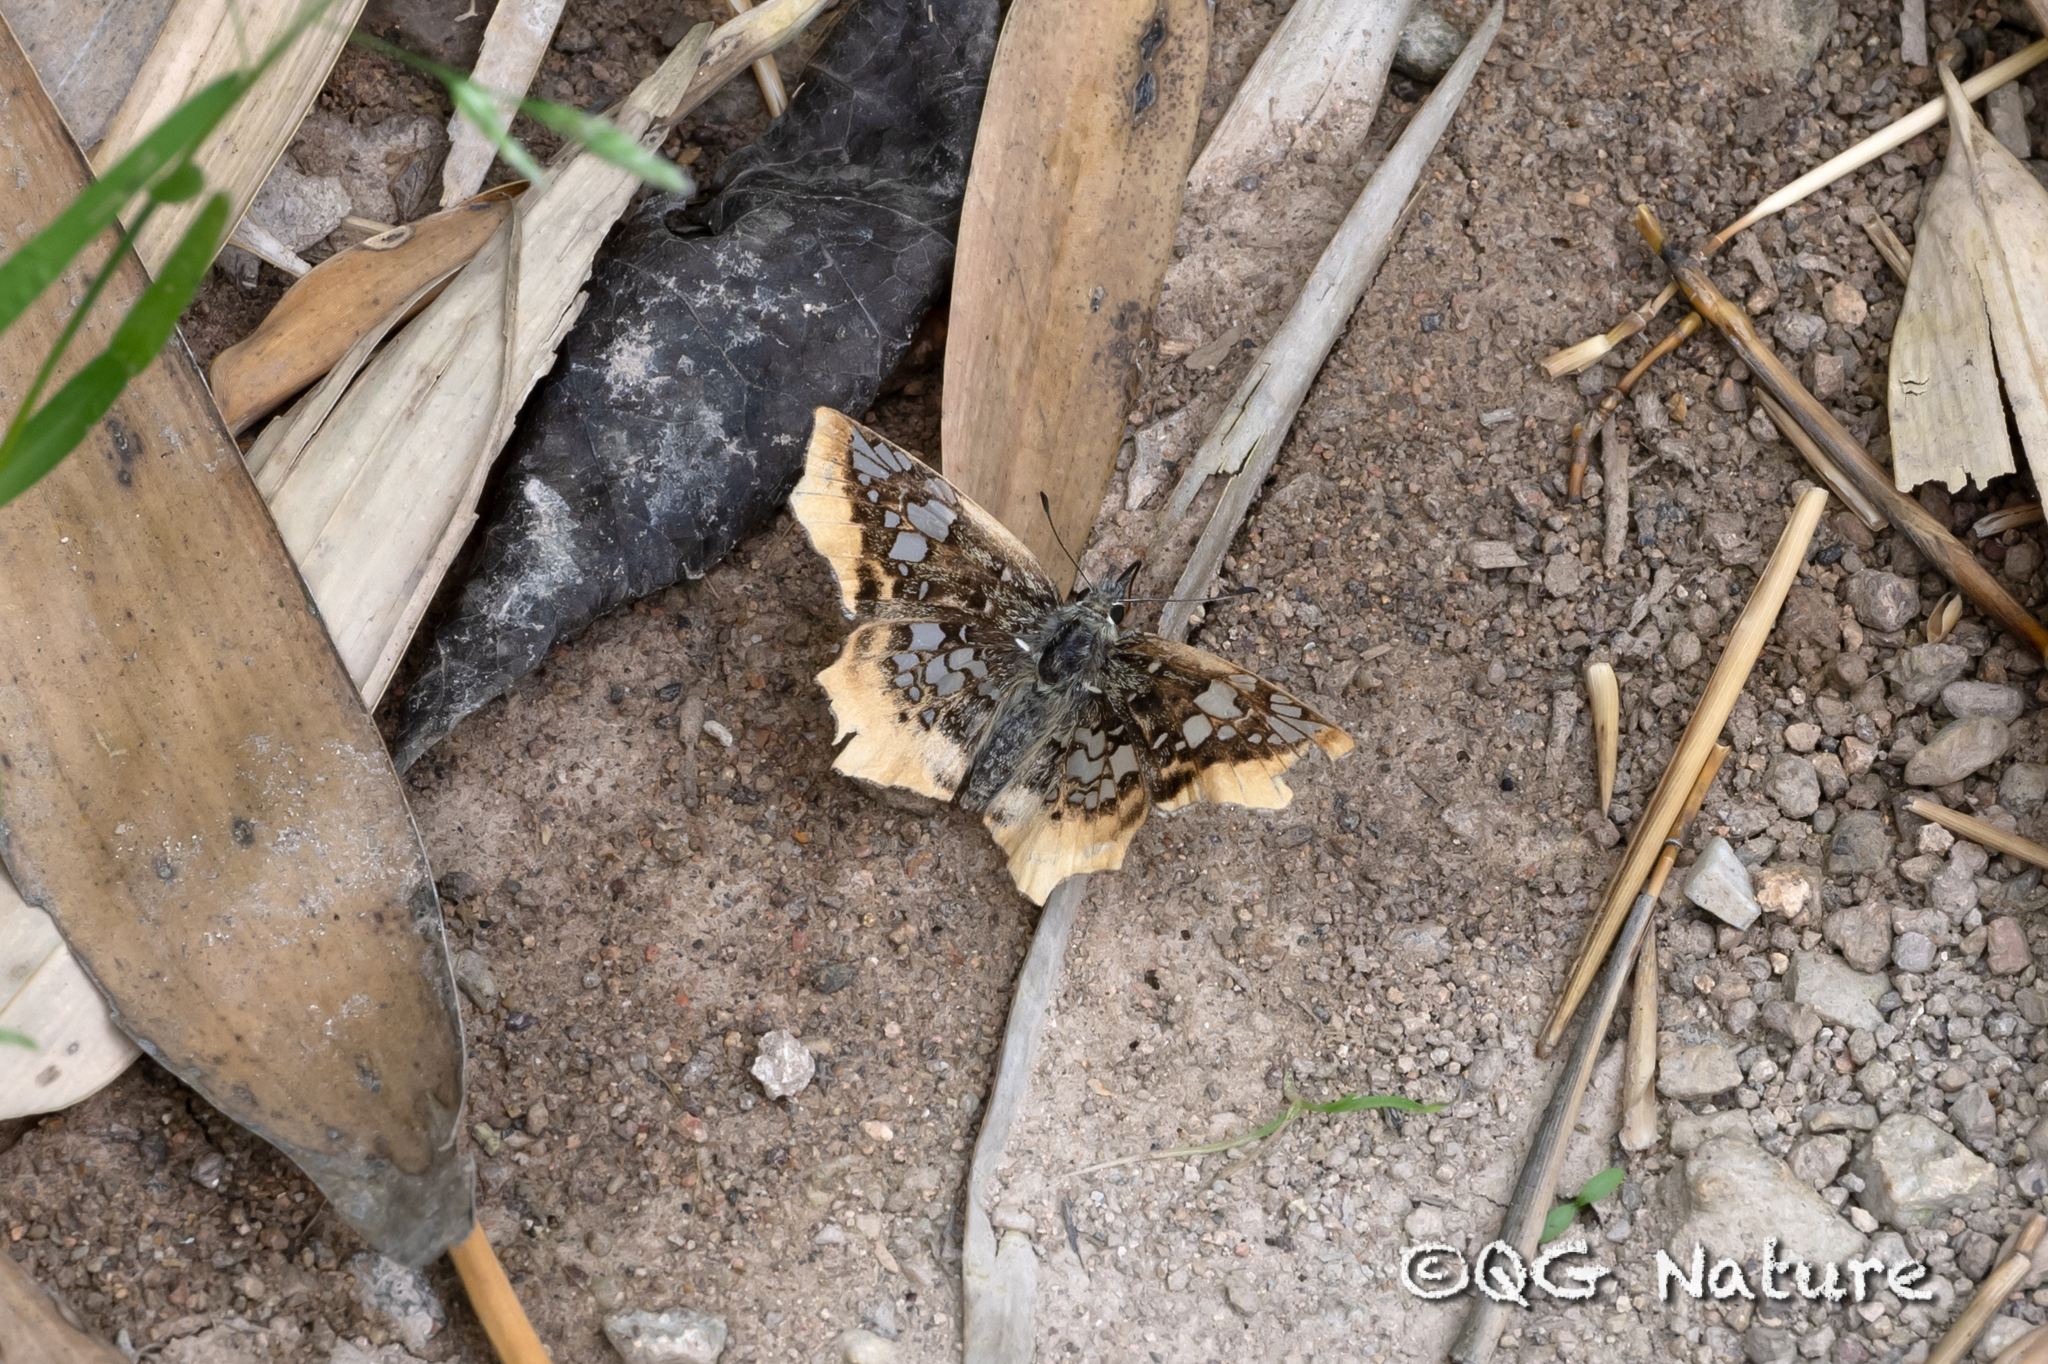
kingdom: Animalia
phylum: Arthropoda
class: Insecta
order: Lepidoptera
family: Hesperiidae
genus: Ctenoptilum
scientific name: Ctenoptilum vasava
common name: Tawny angle
